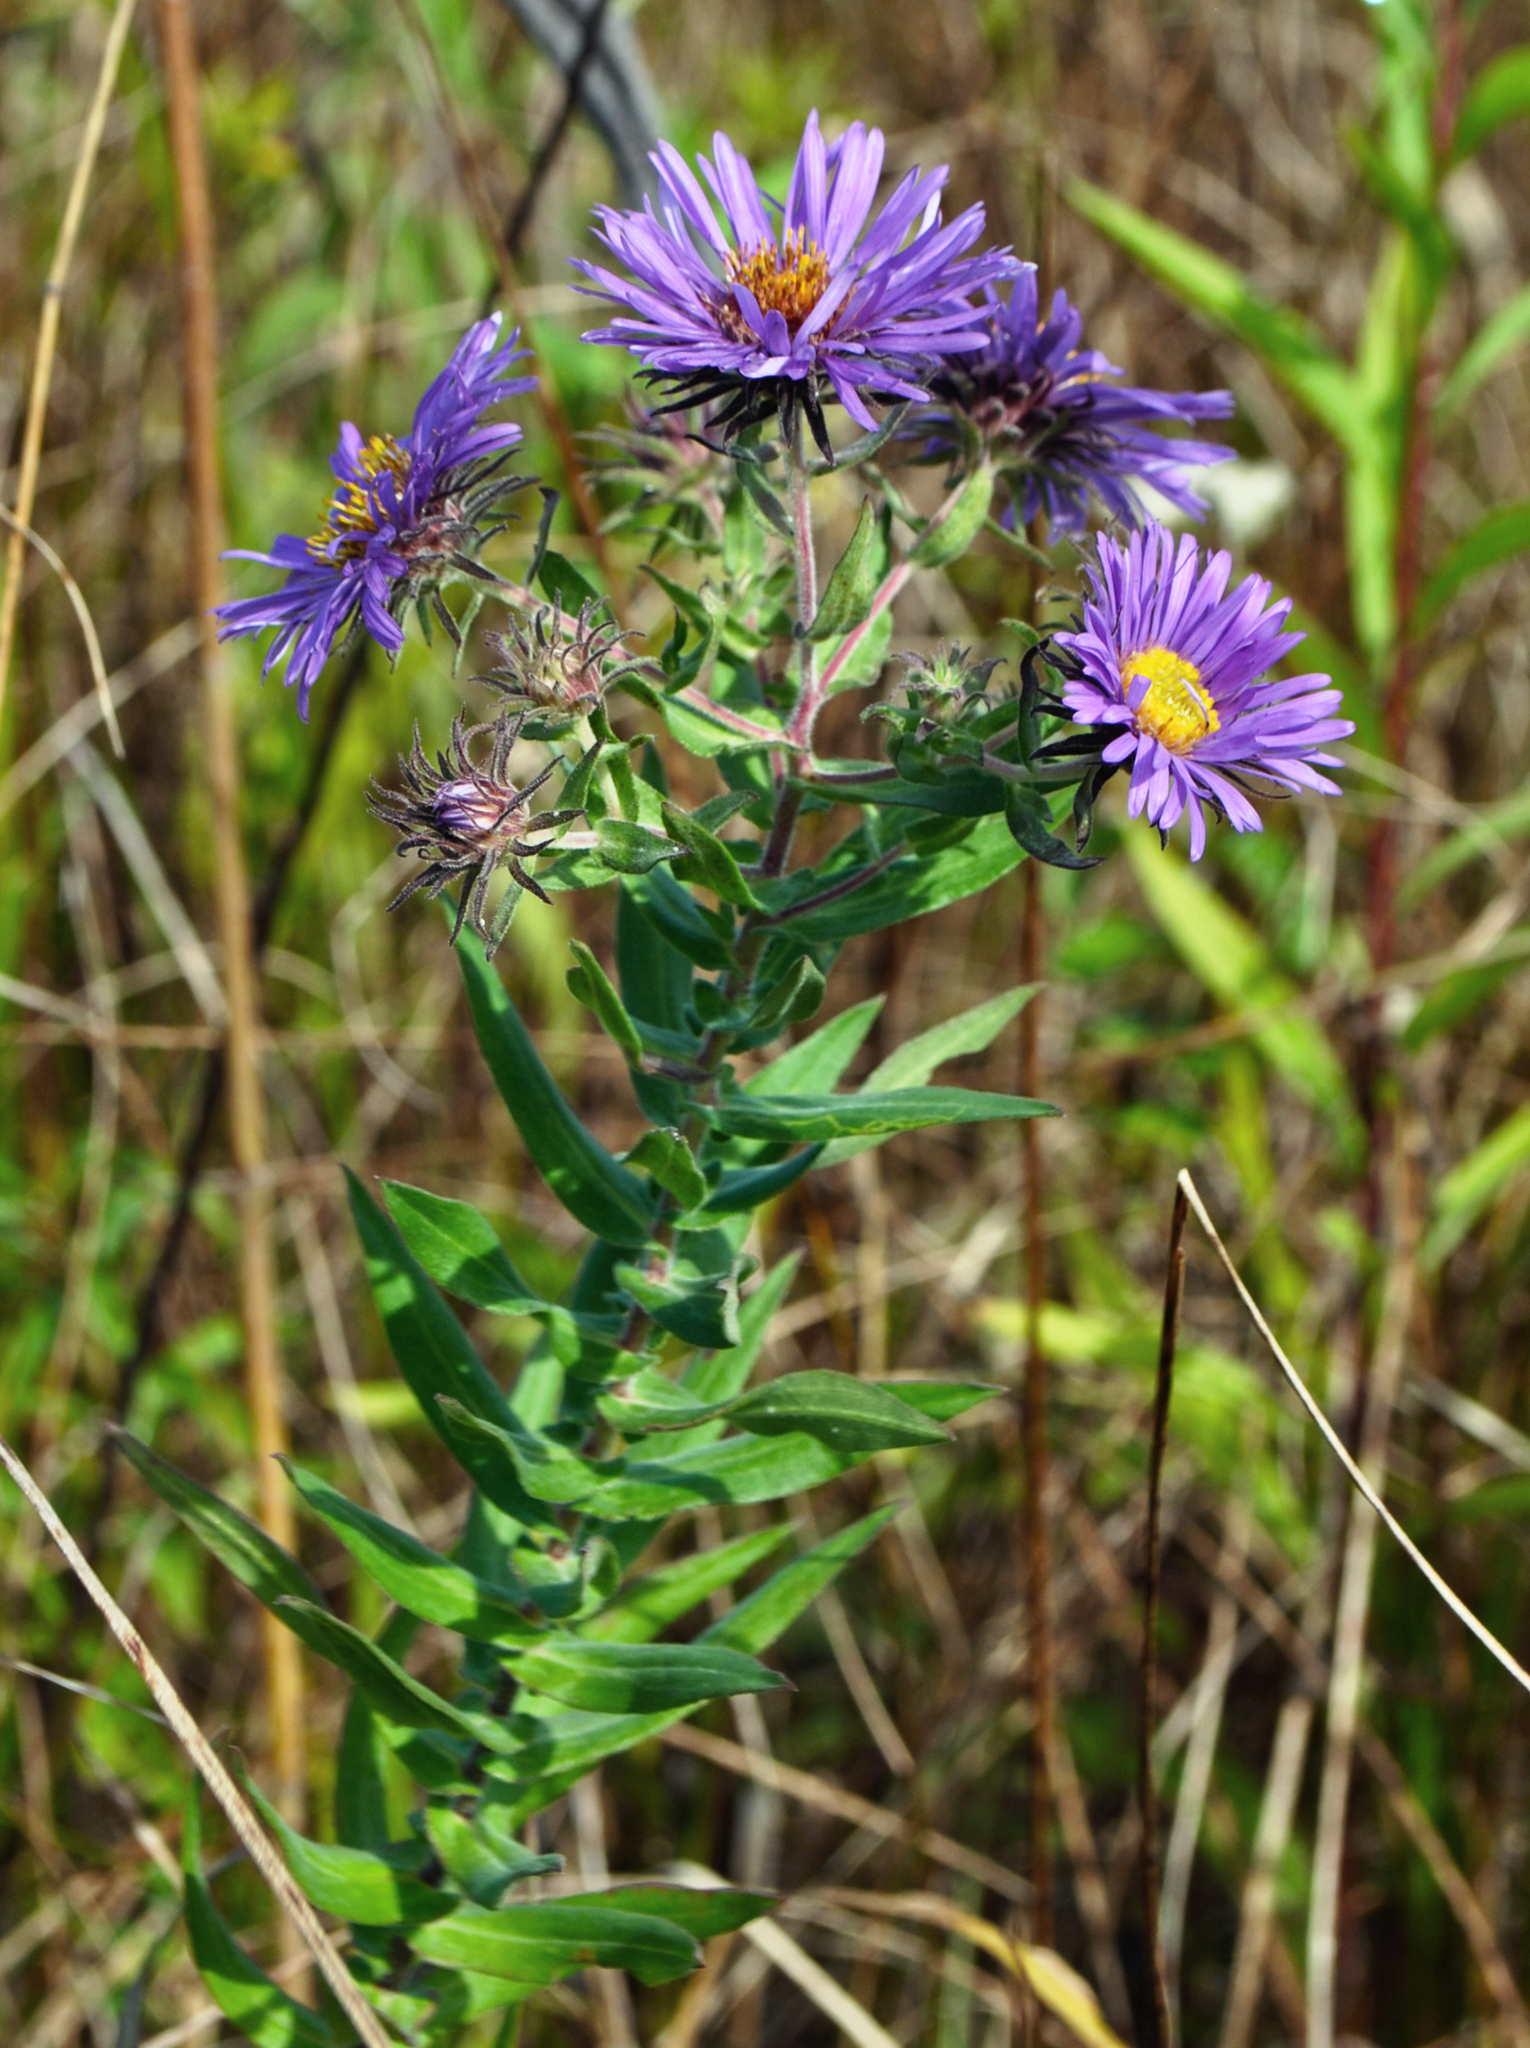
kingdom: Plantae
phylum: Tracheophyta
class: Magnoliopsida
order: Asterales
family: Asteraceae
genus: Symphyotrichum
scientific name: Symphyotrichum novae-angliae
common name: Michaelmas daisy
